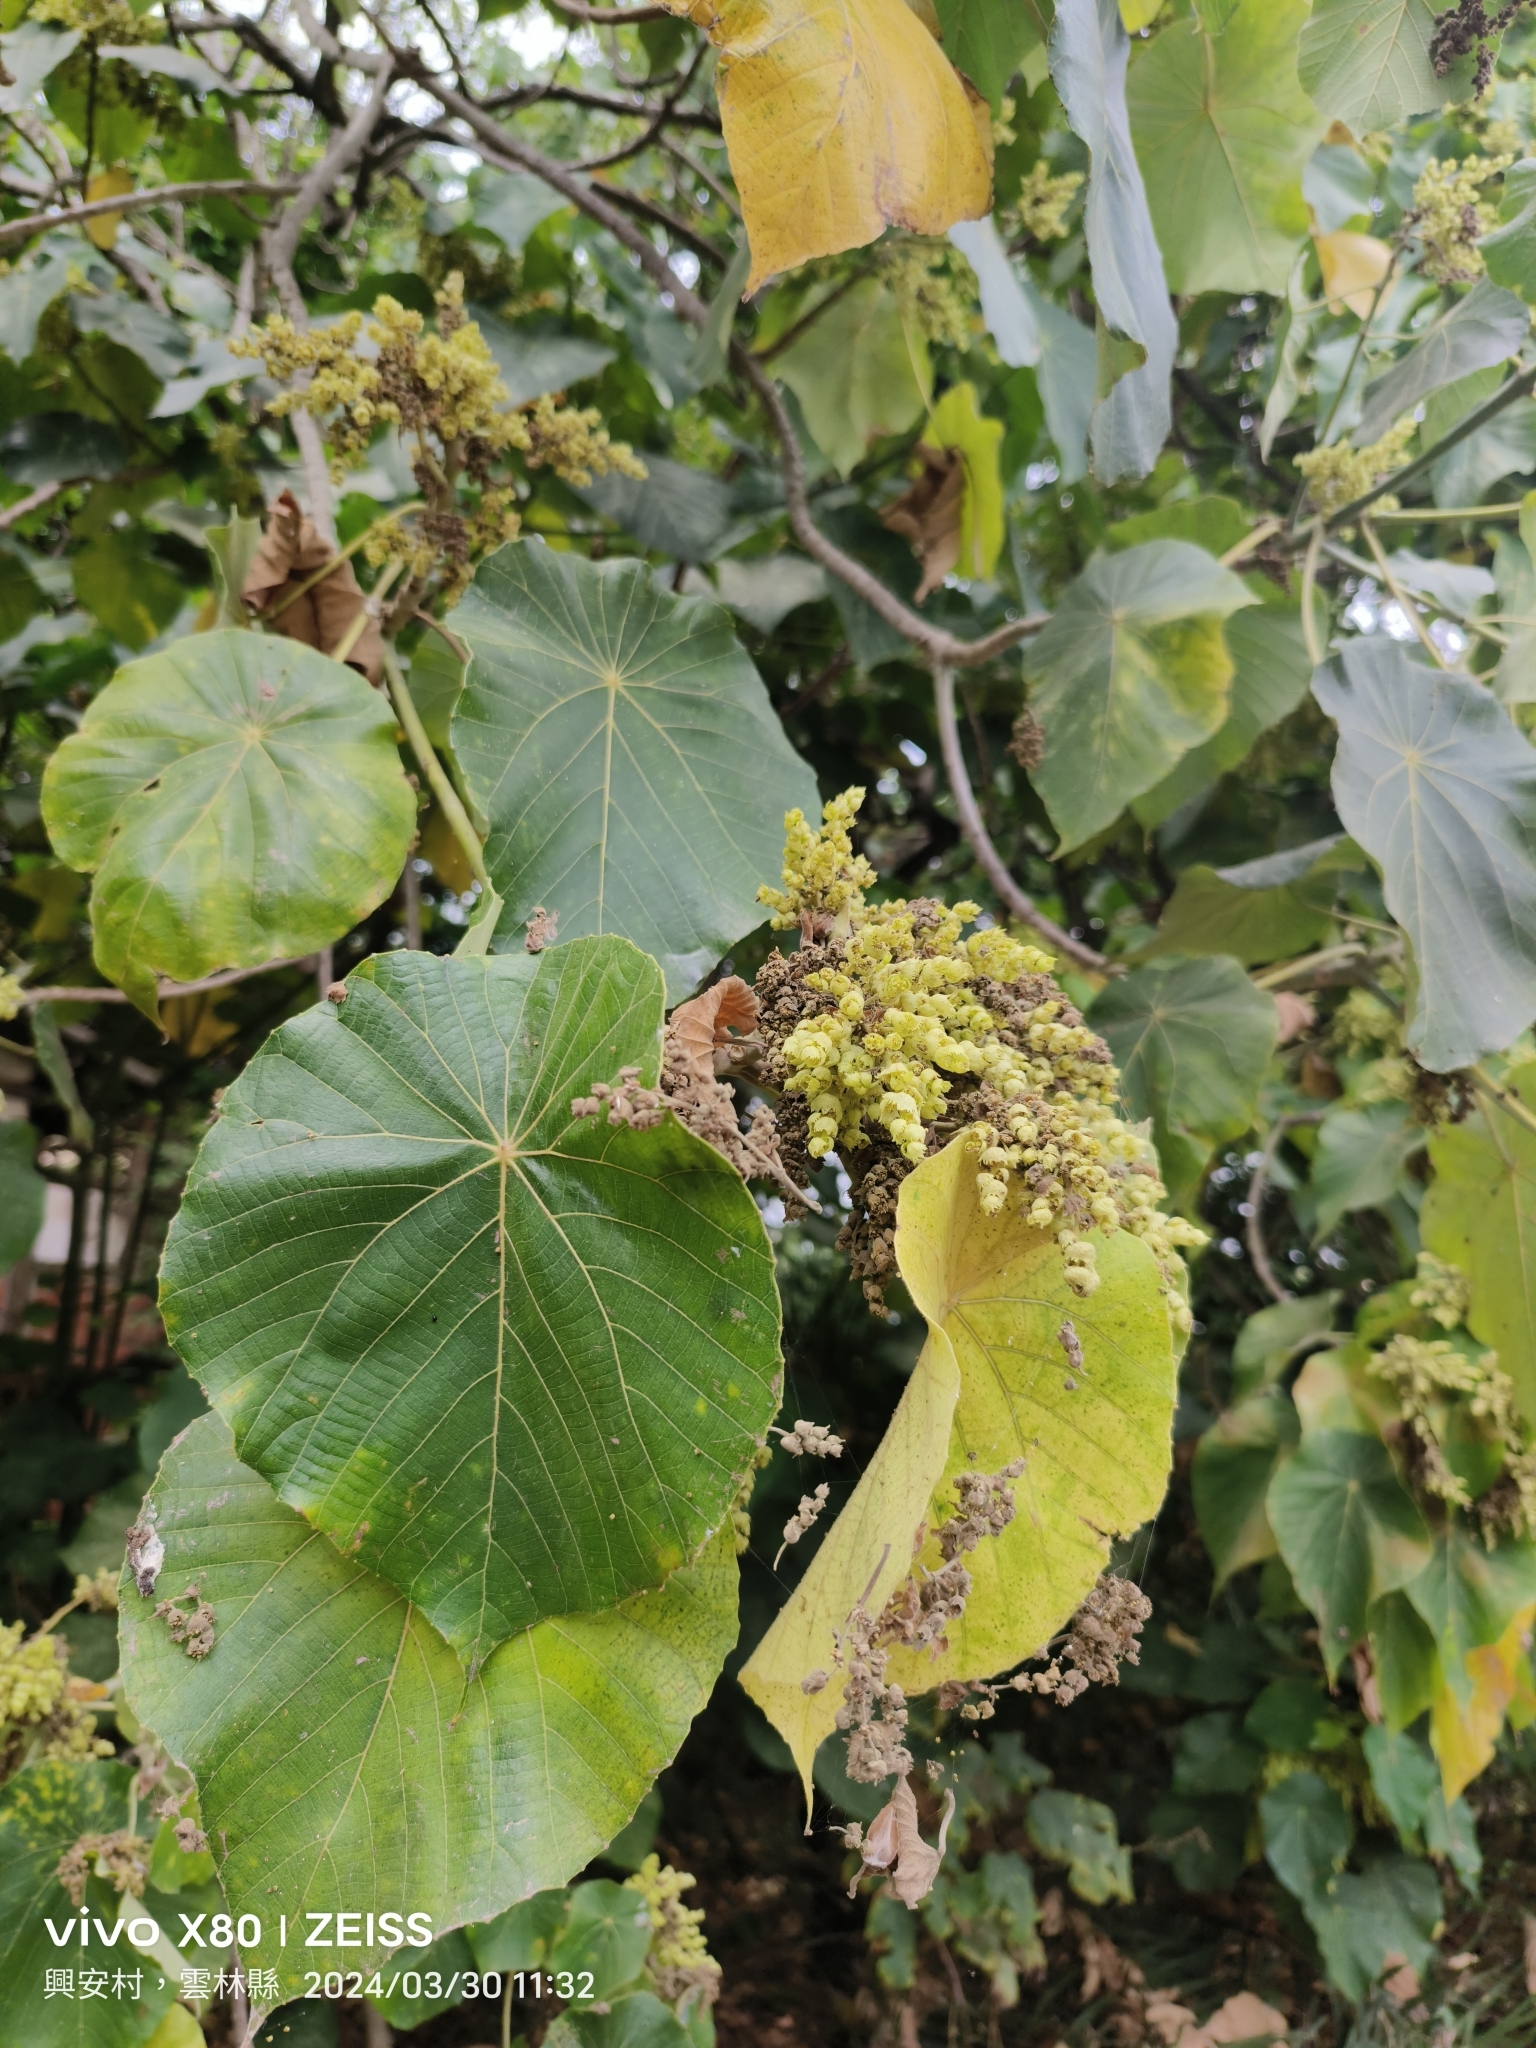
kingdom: Plantae
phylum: Tracheophyta
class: Magnoliopsida
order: Malpighiales
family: Euphorbiaceae
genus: Macaranga
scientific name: Macaranga tanarius
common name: Parasol leaf tree
